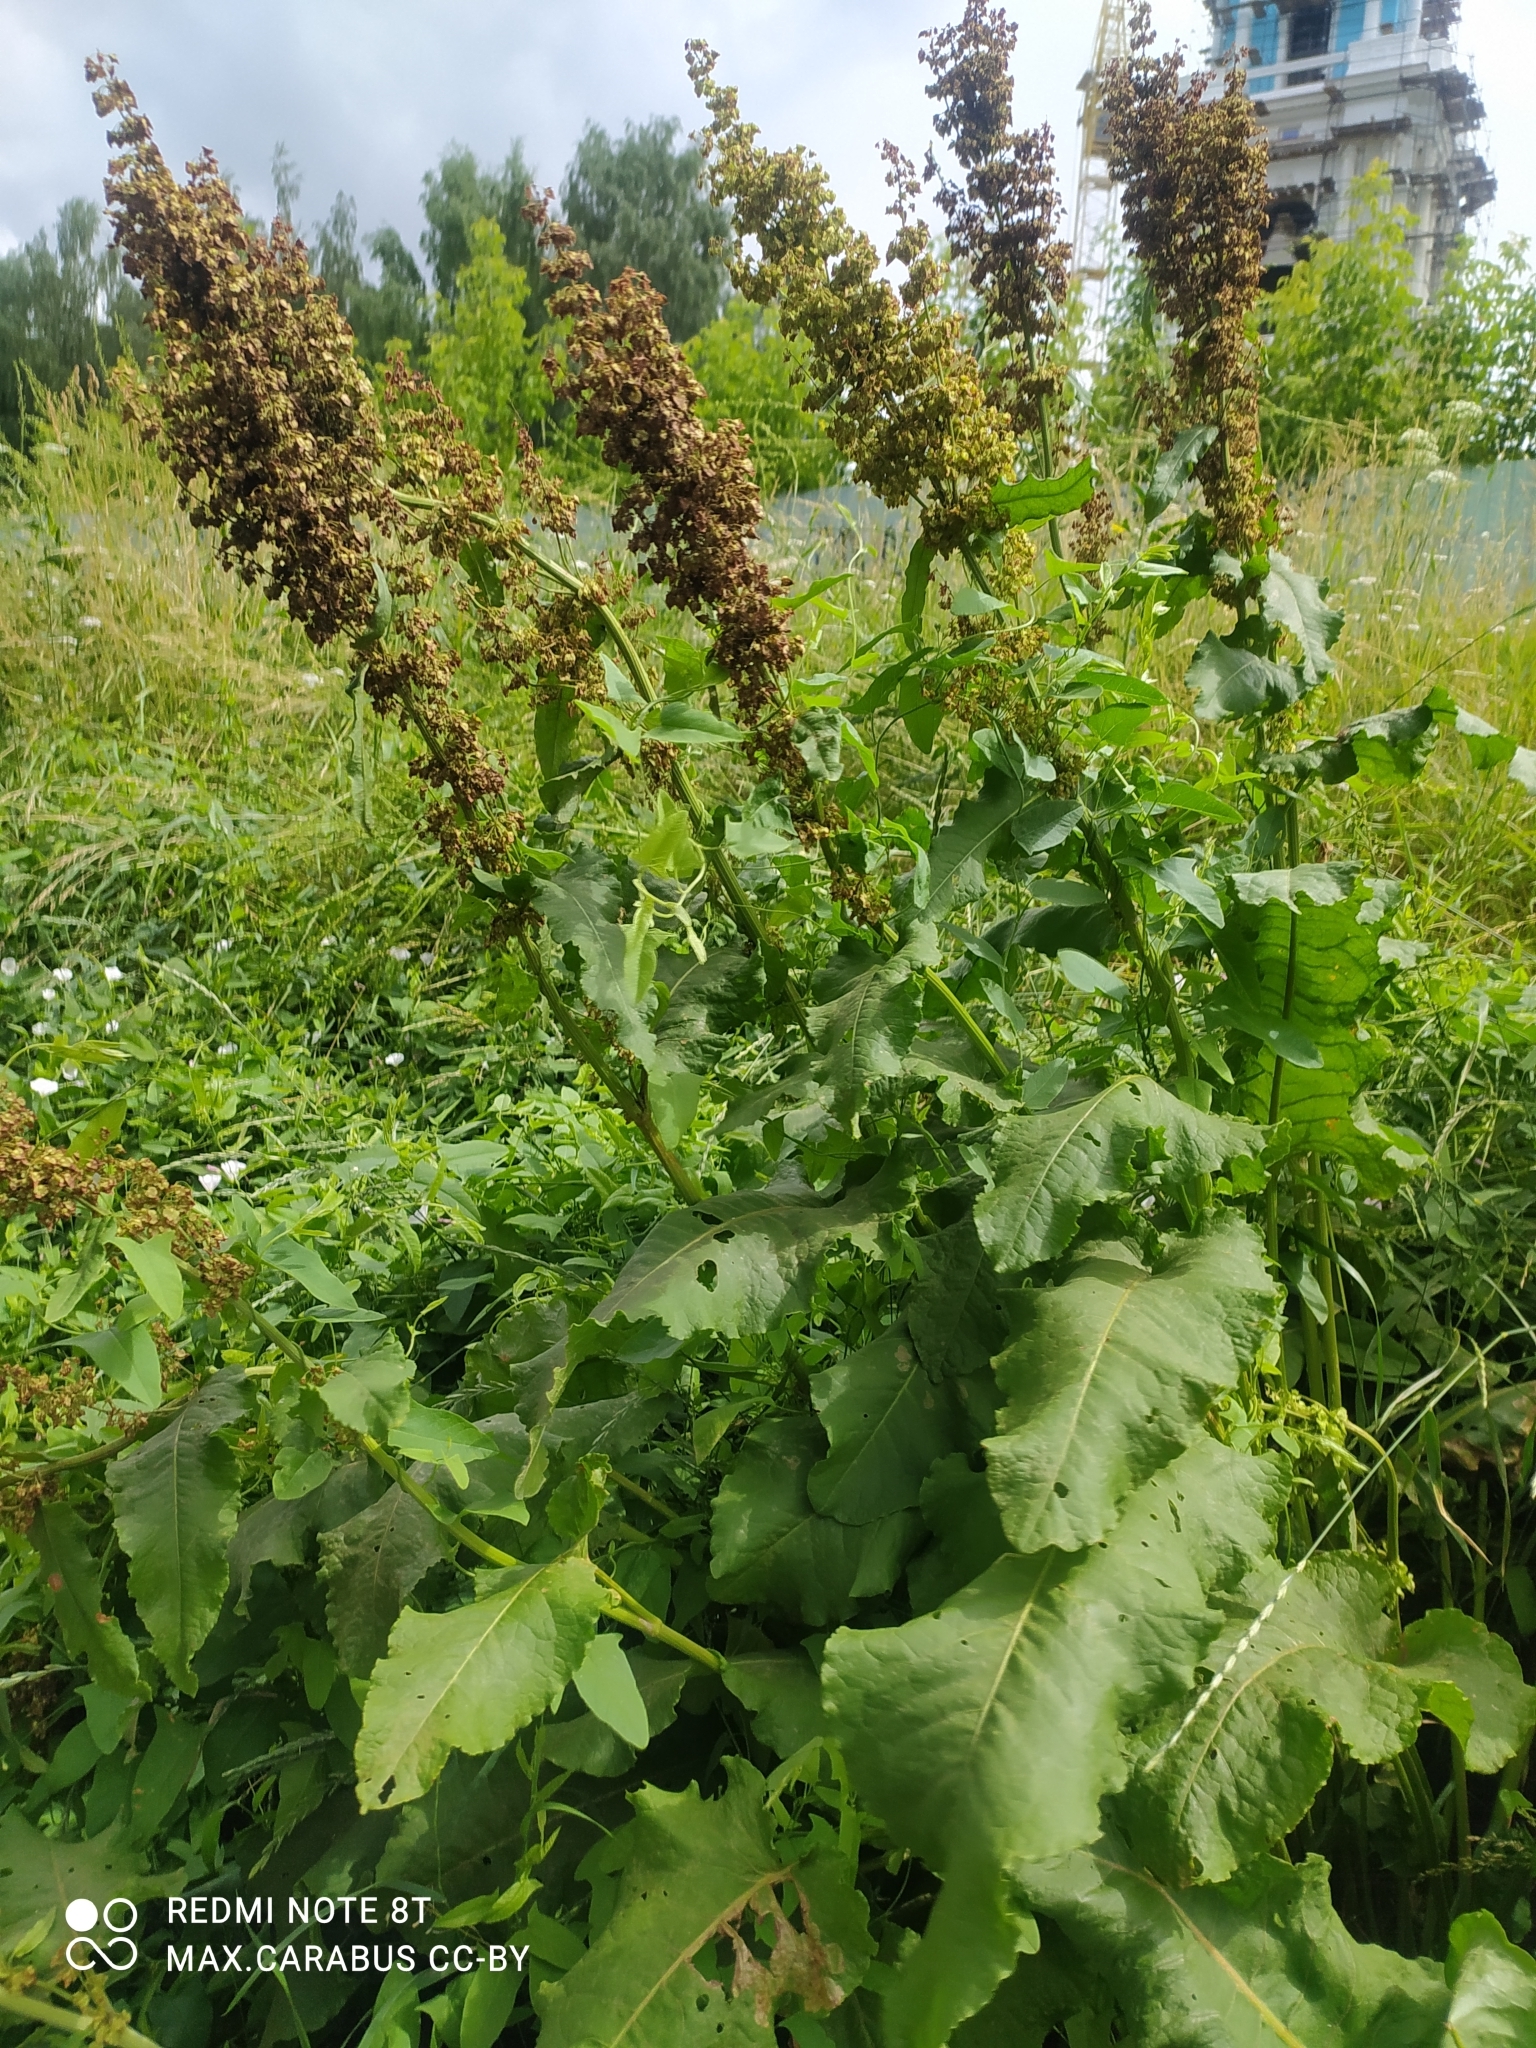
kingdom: Plantae
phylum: Tracheophyta
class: Magnoliopsida
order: Caryophyllales
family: Polygonaceae
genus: Rumex
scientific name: Rumex confertus
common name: Russian dock
